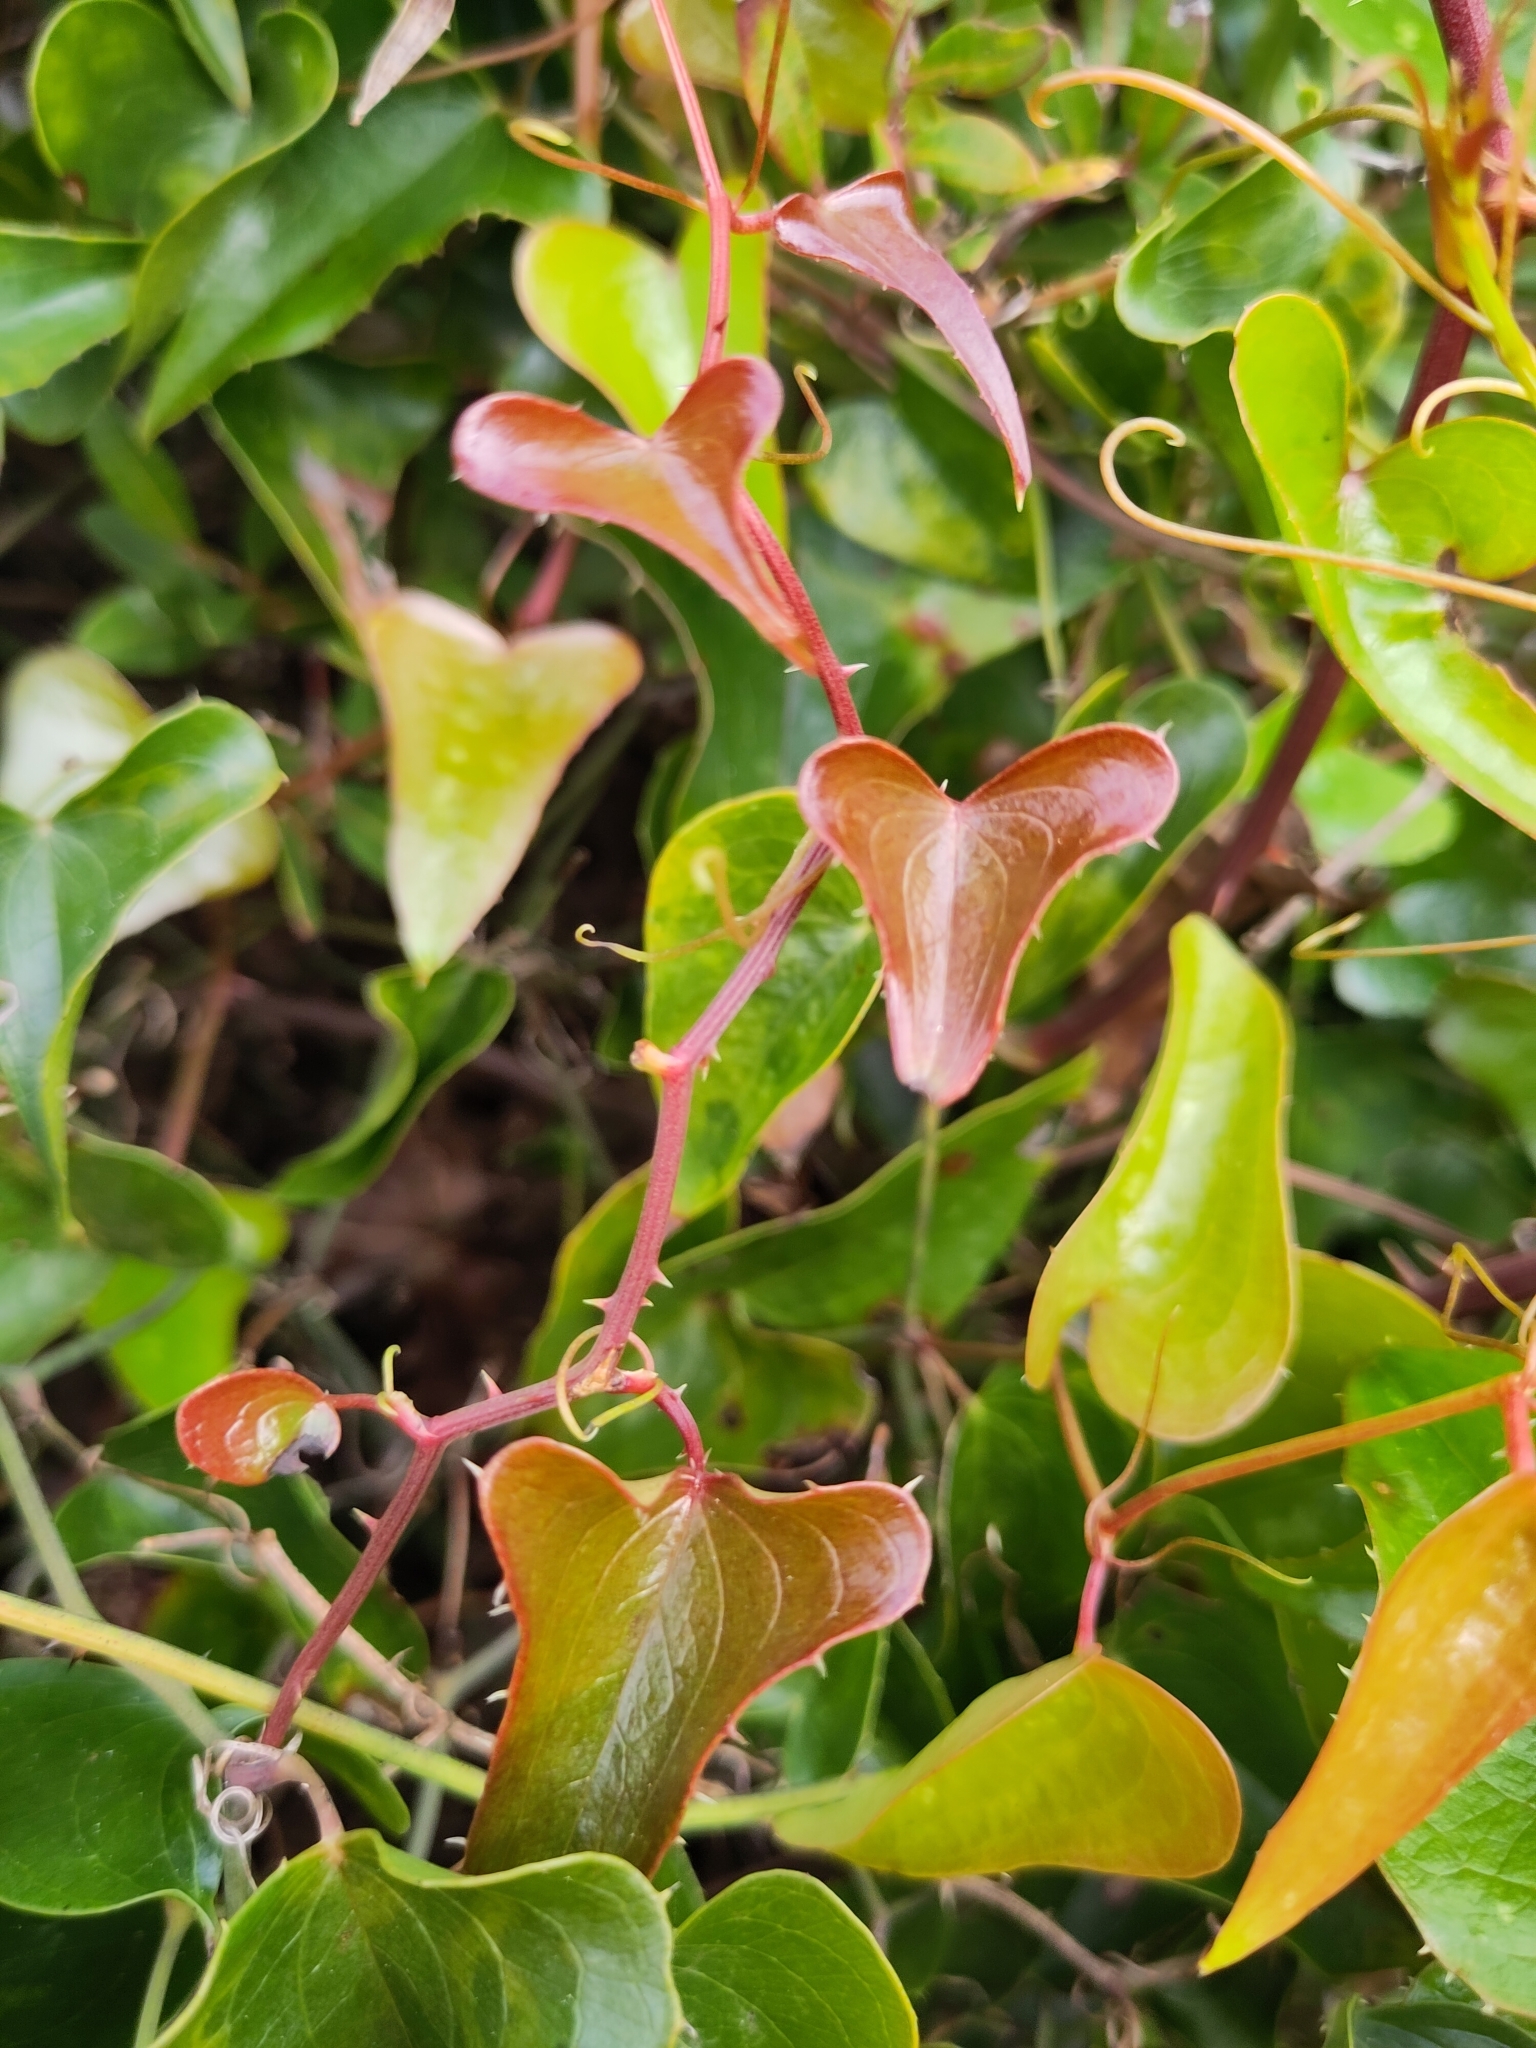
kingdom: Plantae
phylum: Tracheophyta
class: Liliopsida
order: Liliales
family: Smilacaceae
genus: Smilax
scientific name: Smilax aspera
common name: Common smilax
